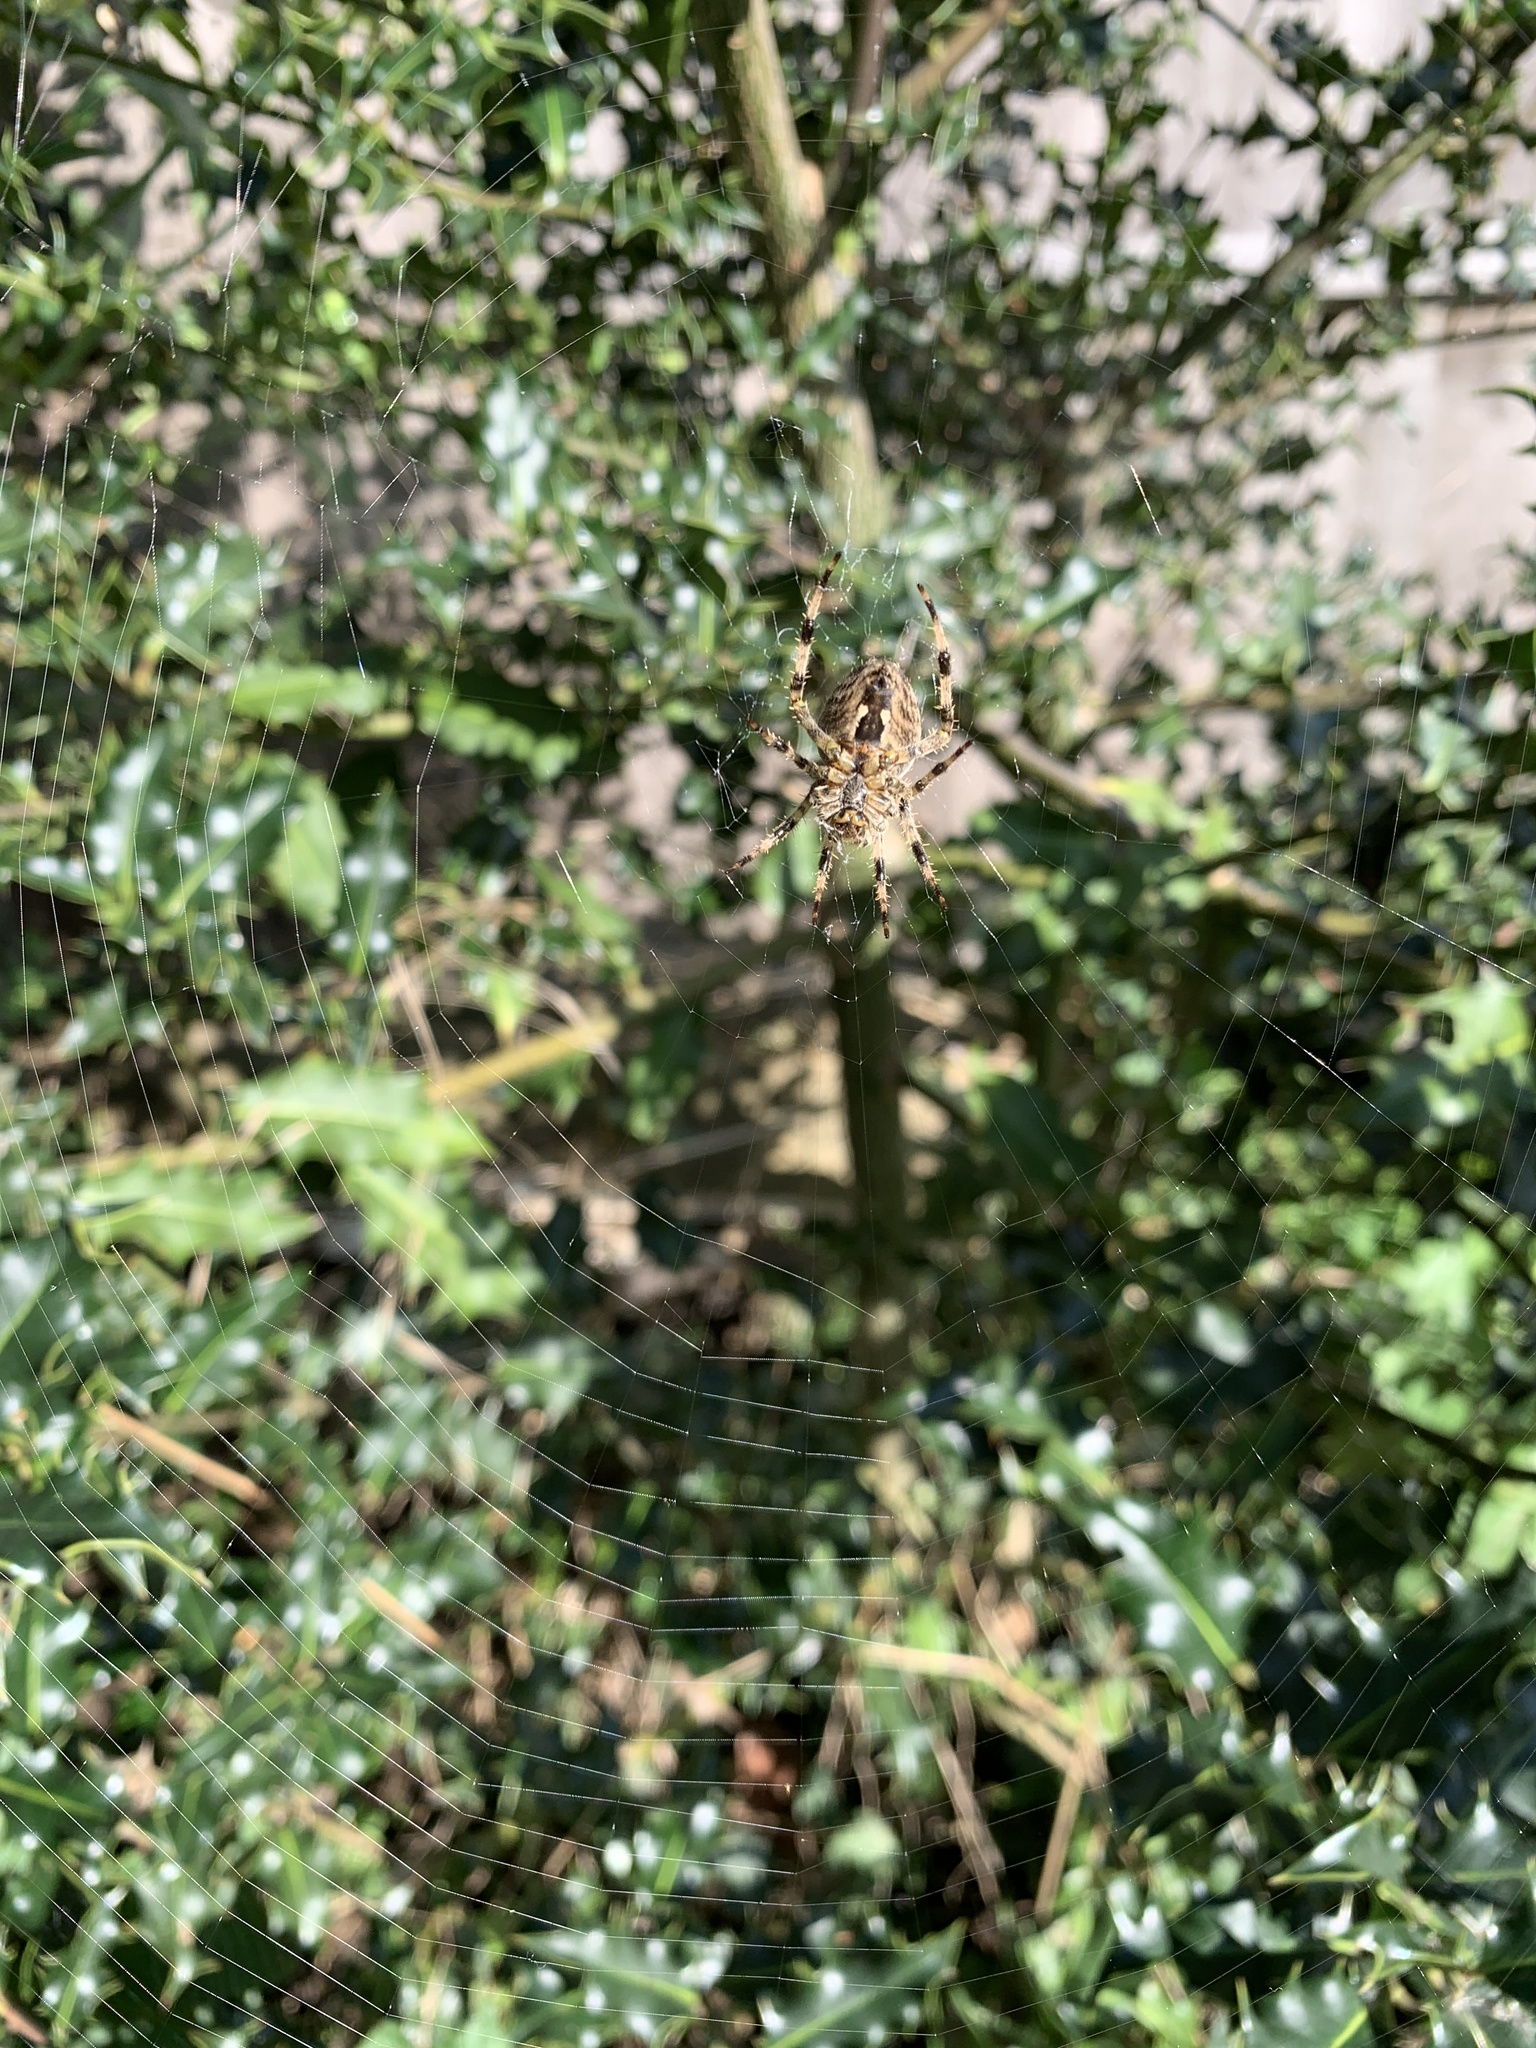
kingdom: Animalia
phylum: Arthropoda
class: Arachnida
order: Araneae
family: Araneidae
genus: Araneus
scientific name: Araneus diadematus
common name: Cross orbweaver
